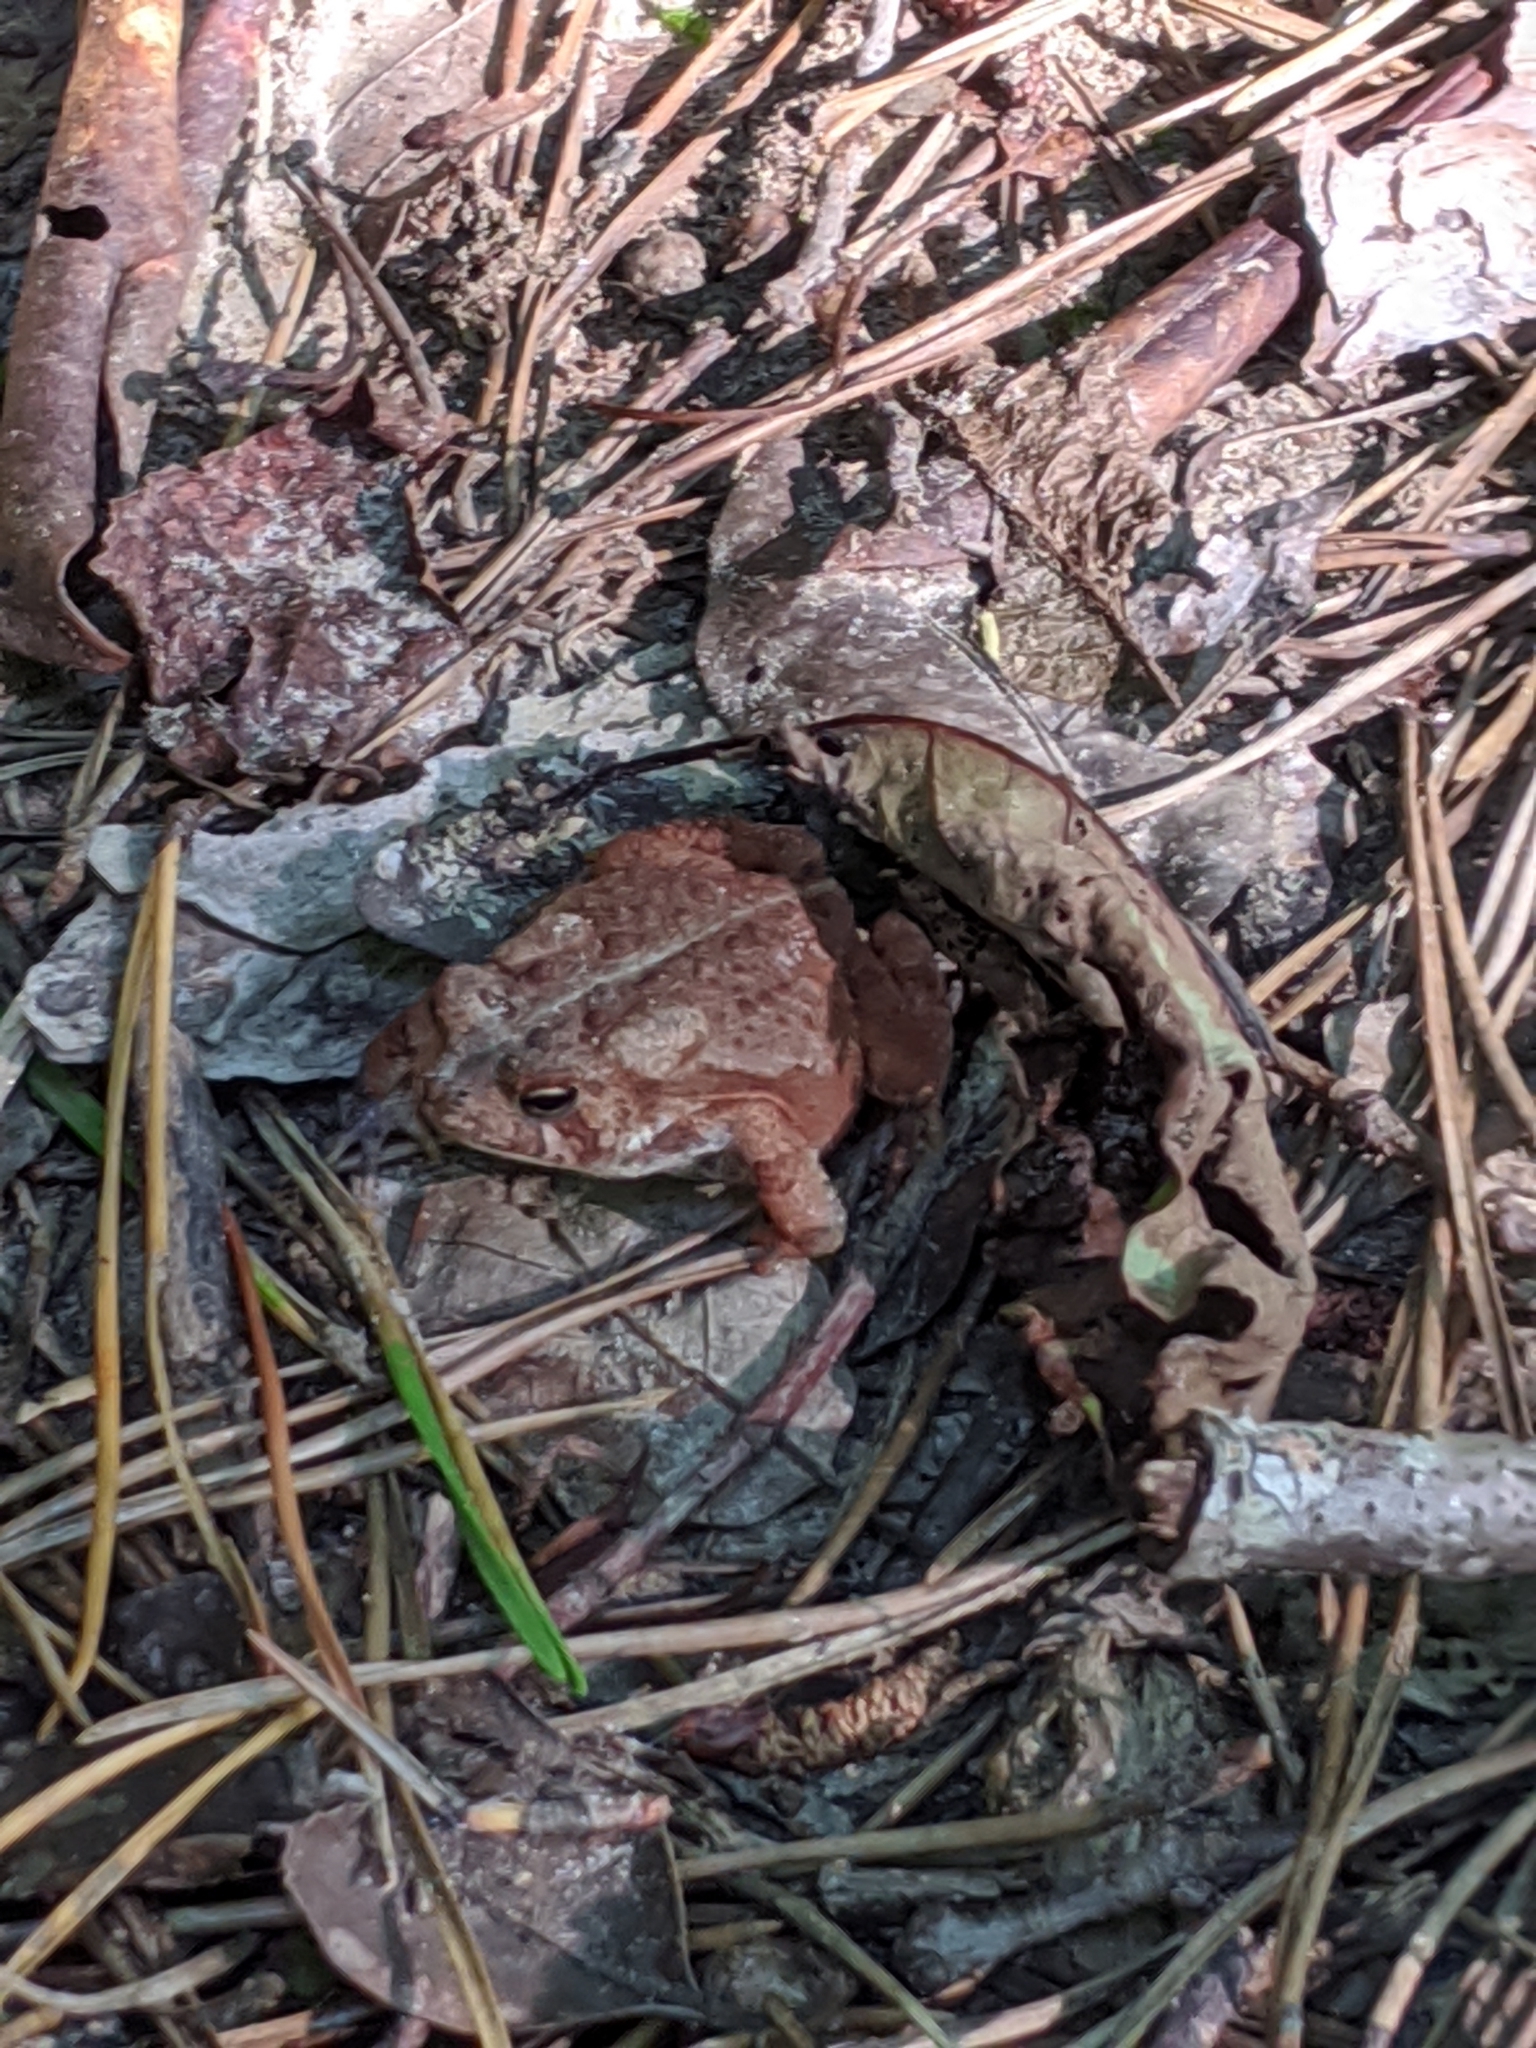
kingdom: Animalia
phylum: Chordata
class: Amphibia
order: Anura
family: Bufonidae
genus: Anaxyrus
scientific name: Anaxyrus americanus
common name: American toad
